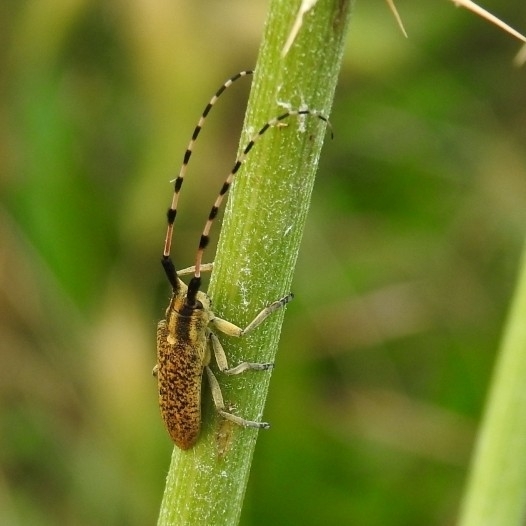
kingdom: Animalia
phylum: Arthropoda
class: Insecta
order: Coleoptera
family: Cerambycidae
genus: Agapanthia
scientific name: Agapanthia sicula
